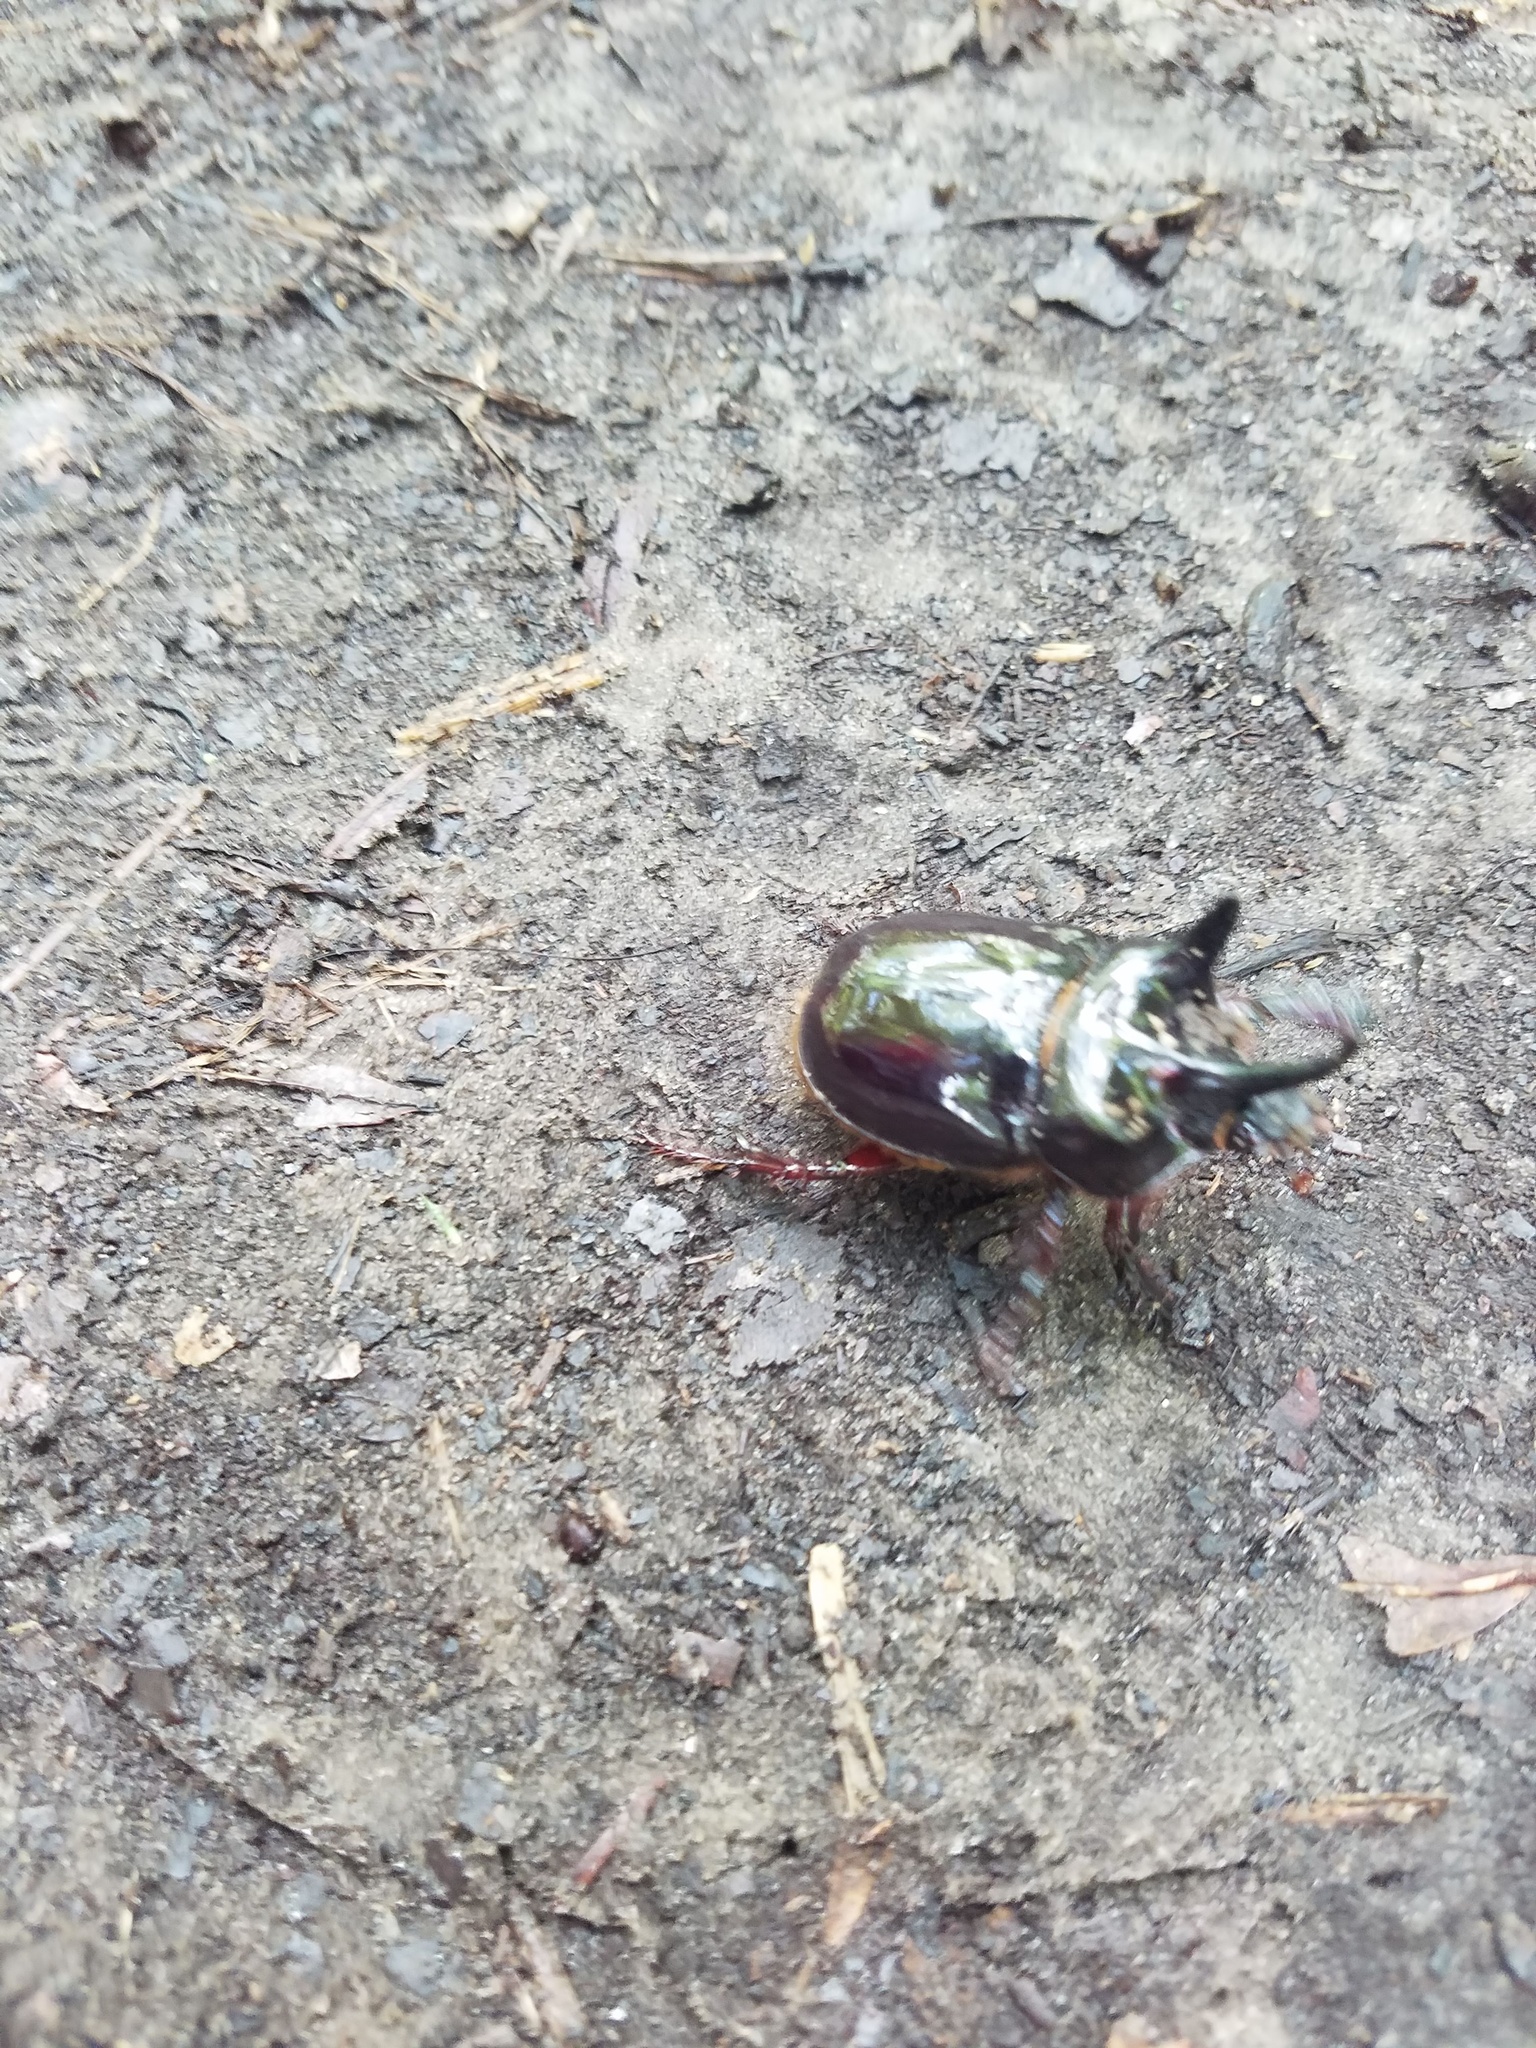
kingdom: Animalia
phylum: Arthropoda
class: Insecta
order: Coleoptera
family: Scarabaeidae
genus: Strategus
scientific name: Strategus antaeus
